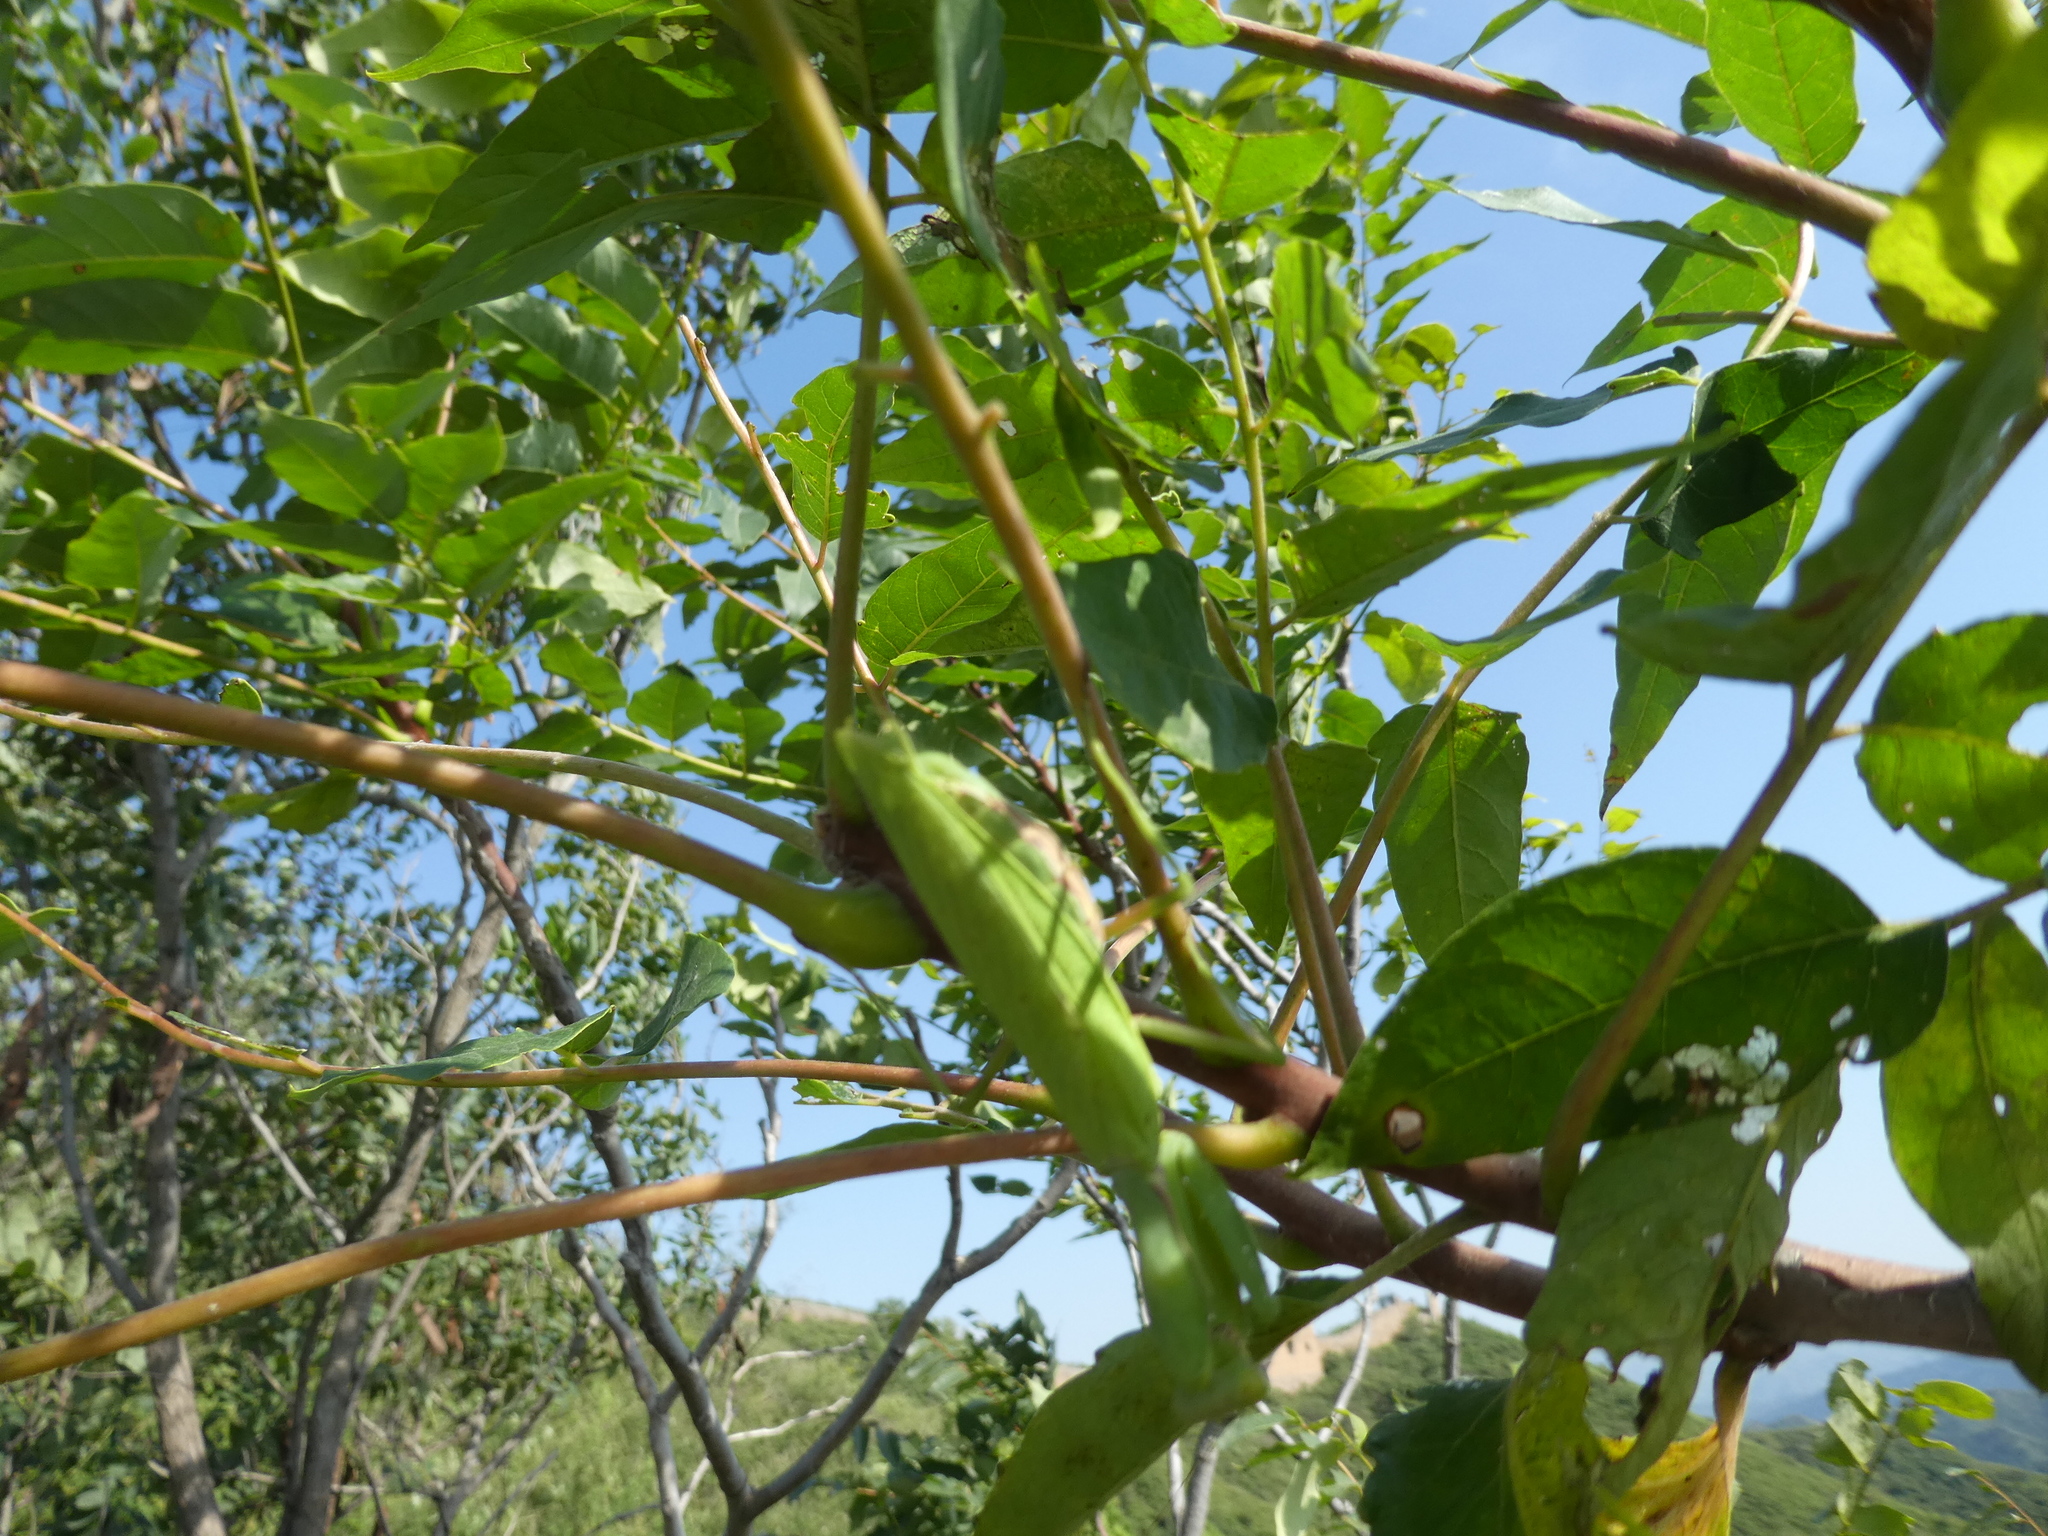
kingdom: Animalia
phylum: Arthropoda
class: Insecta
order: Mantodea
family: Mantidae
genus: Hierodula
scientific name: Hierodula patellifera
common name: Asian mantis
